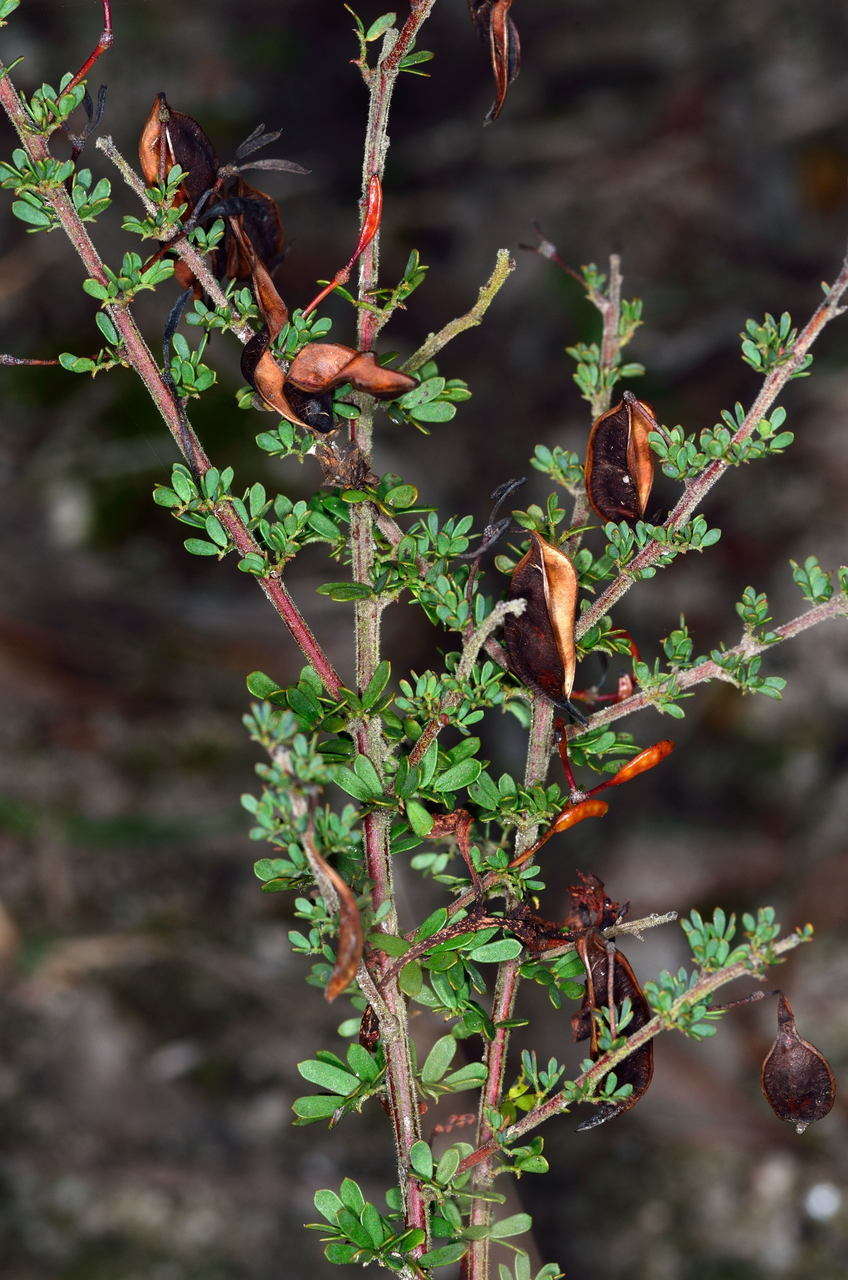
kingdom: Plantae
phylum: Tracheophyta
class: Magnoliopsida
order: Fabales
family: Fabaceae
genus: Acacia
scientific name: Acacia mitchellii
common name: Mitchell's wattle
